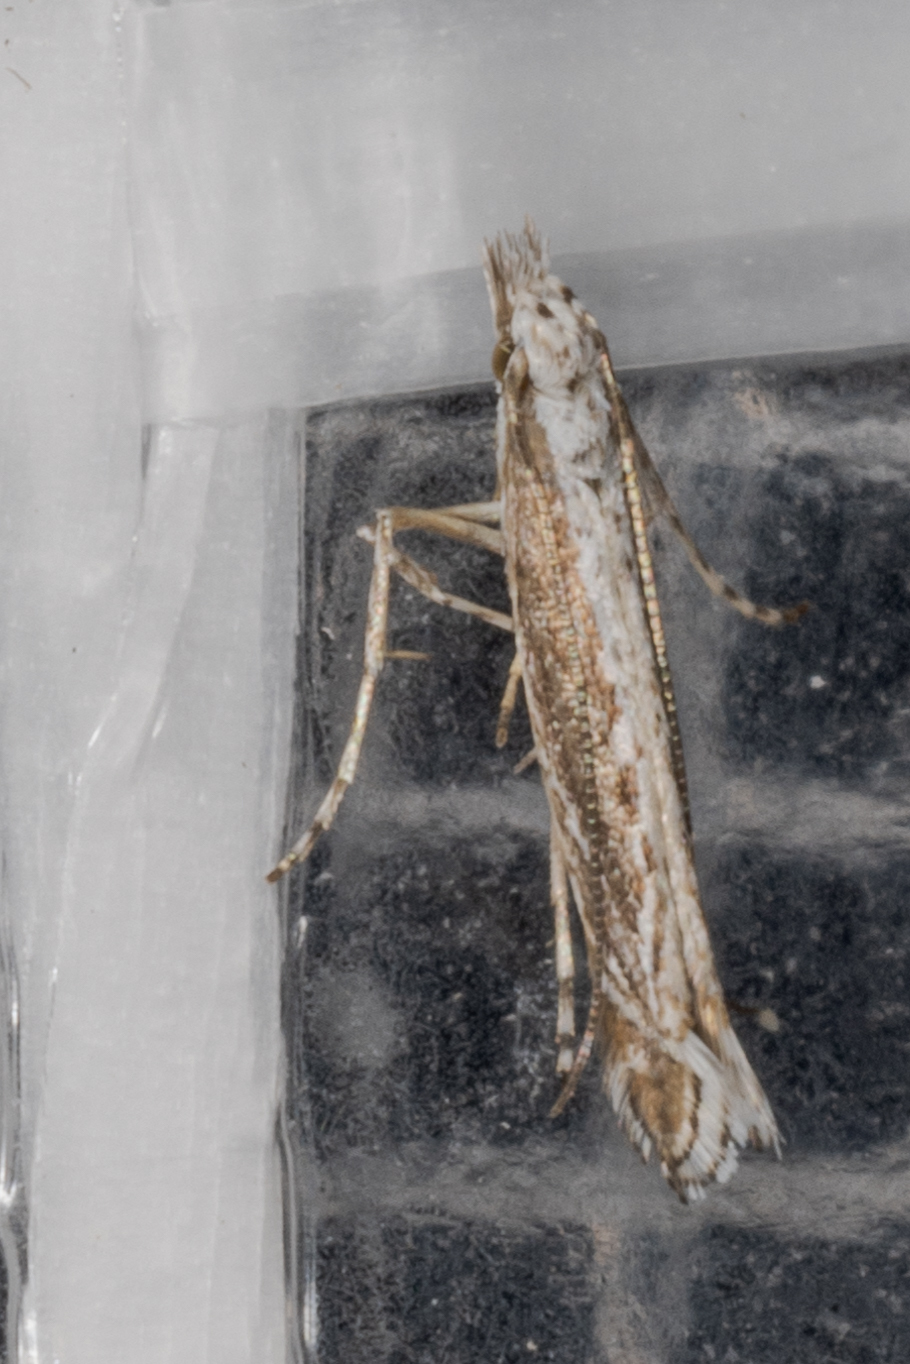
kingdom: Plantae
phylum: Rhodophyta
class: Florideophyceae
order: Gracilariales
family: Gracilariaceae
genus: Gracilaria
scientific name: Gracilaria
